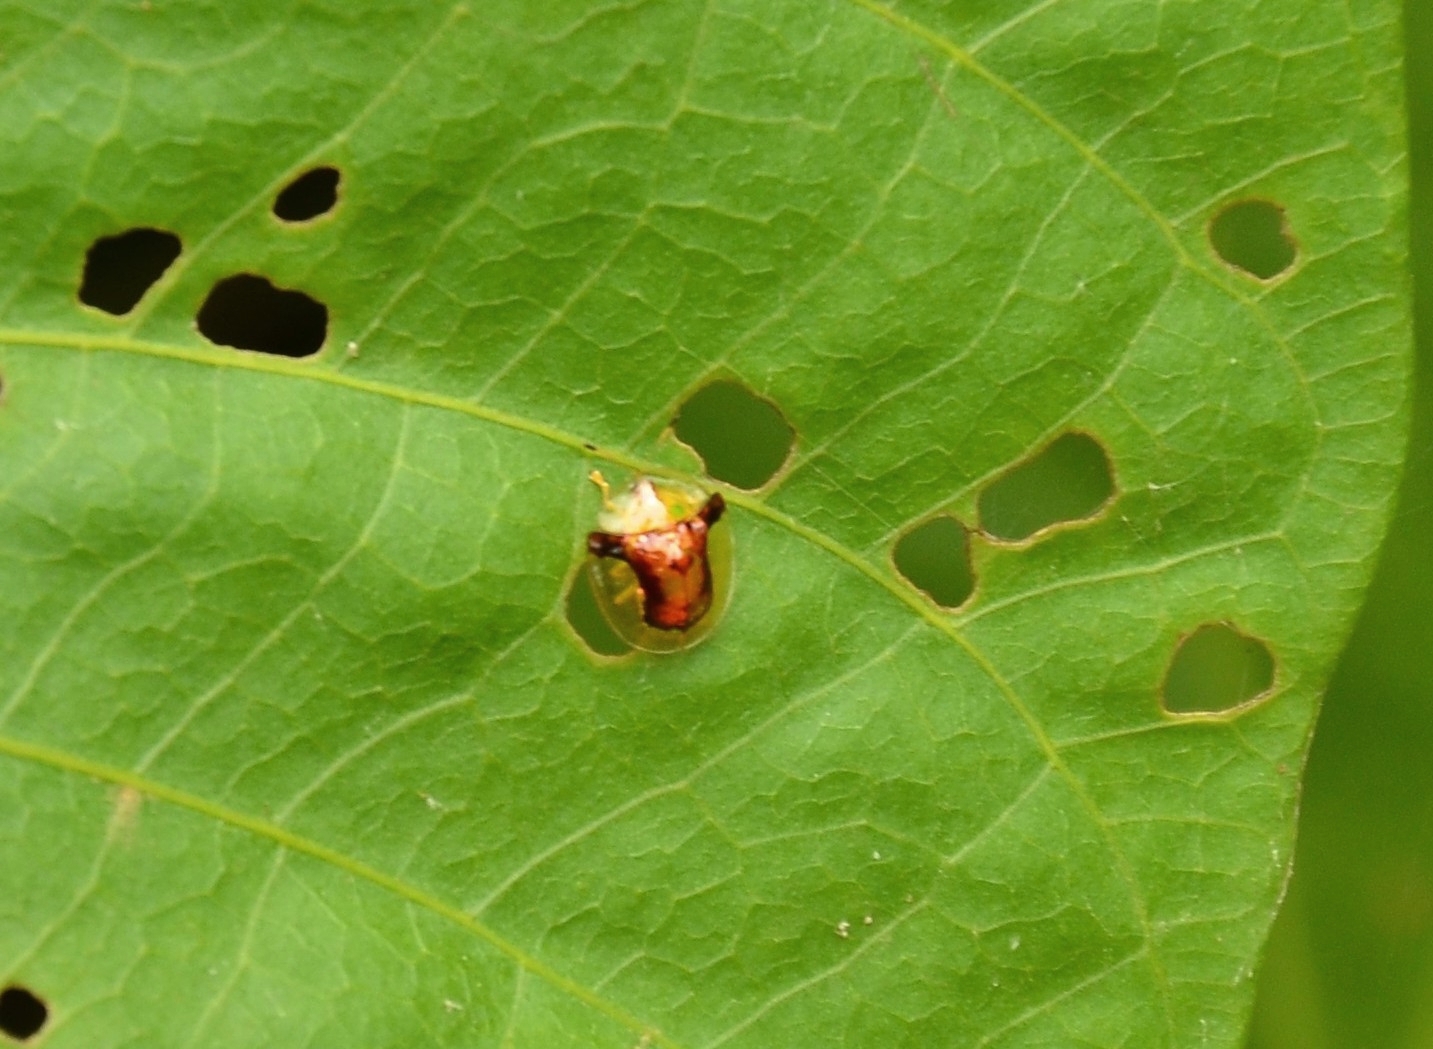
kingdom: Animalia
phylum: Arthropoda
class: Insecta
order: Coleoptera
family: Chrysomelidae
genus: Aspidimorpha
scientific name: Aspidimorpha furcata
